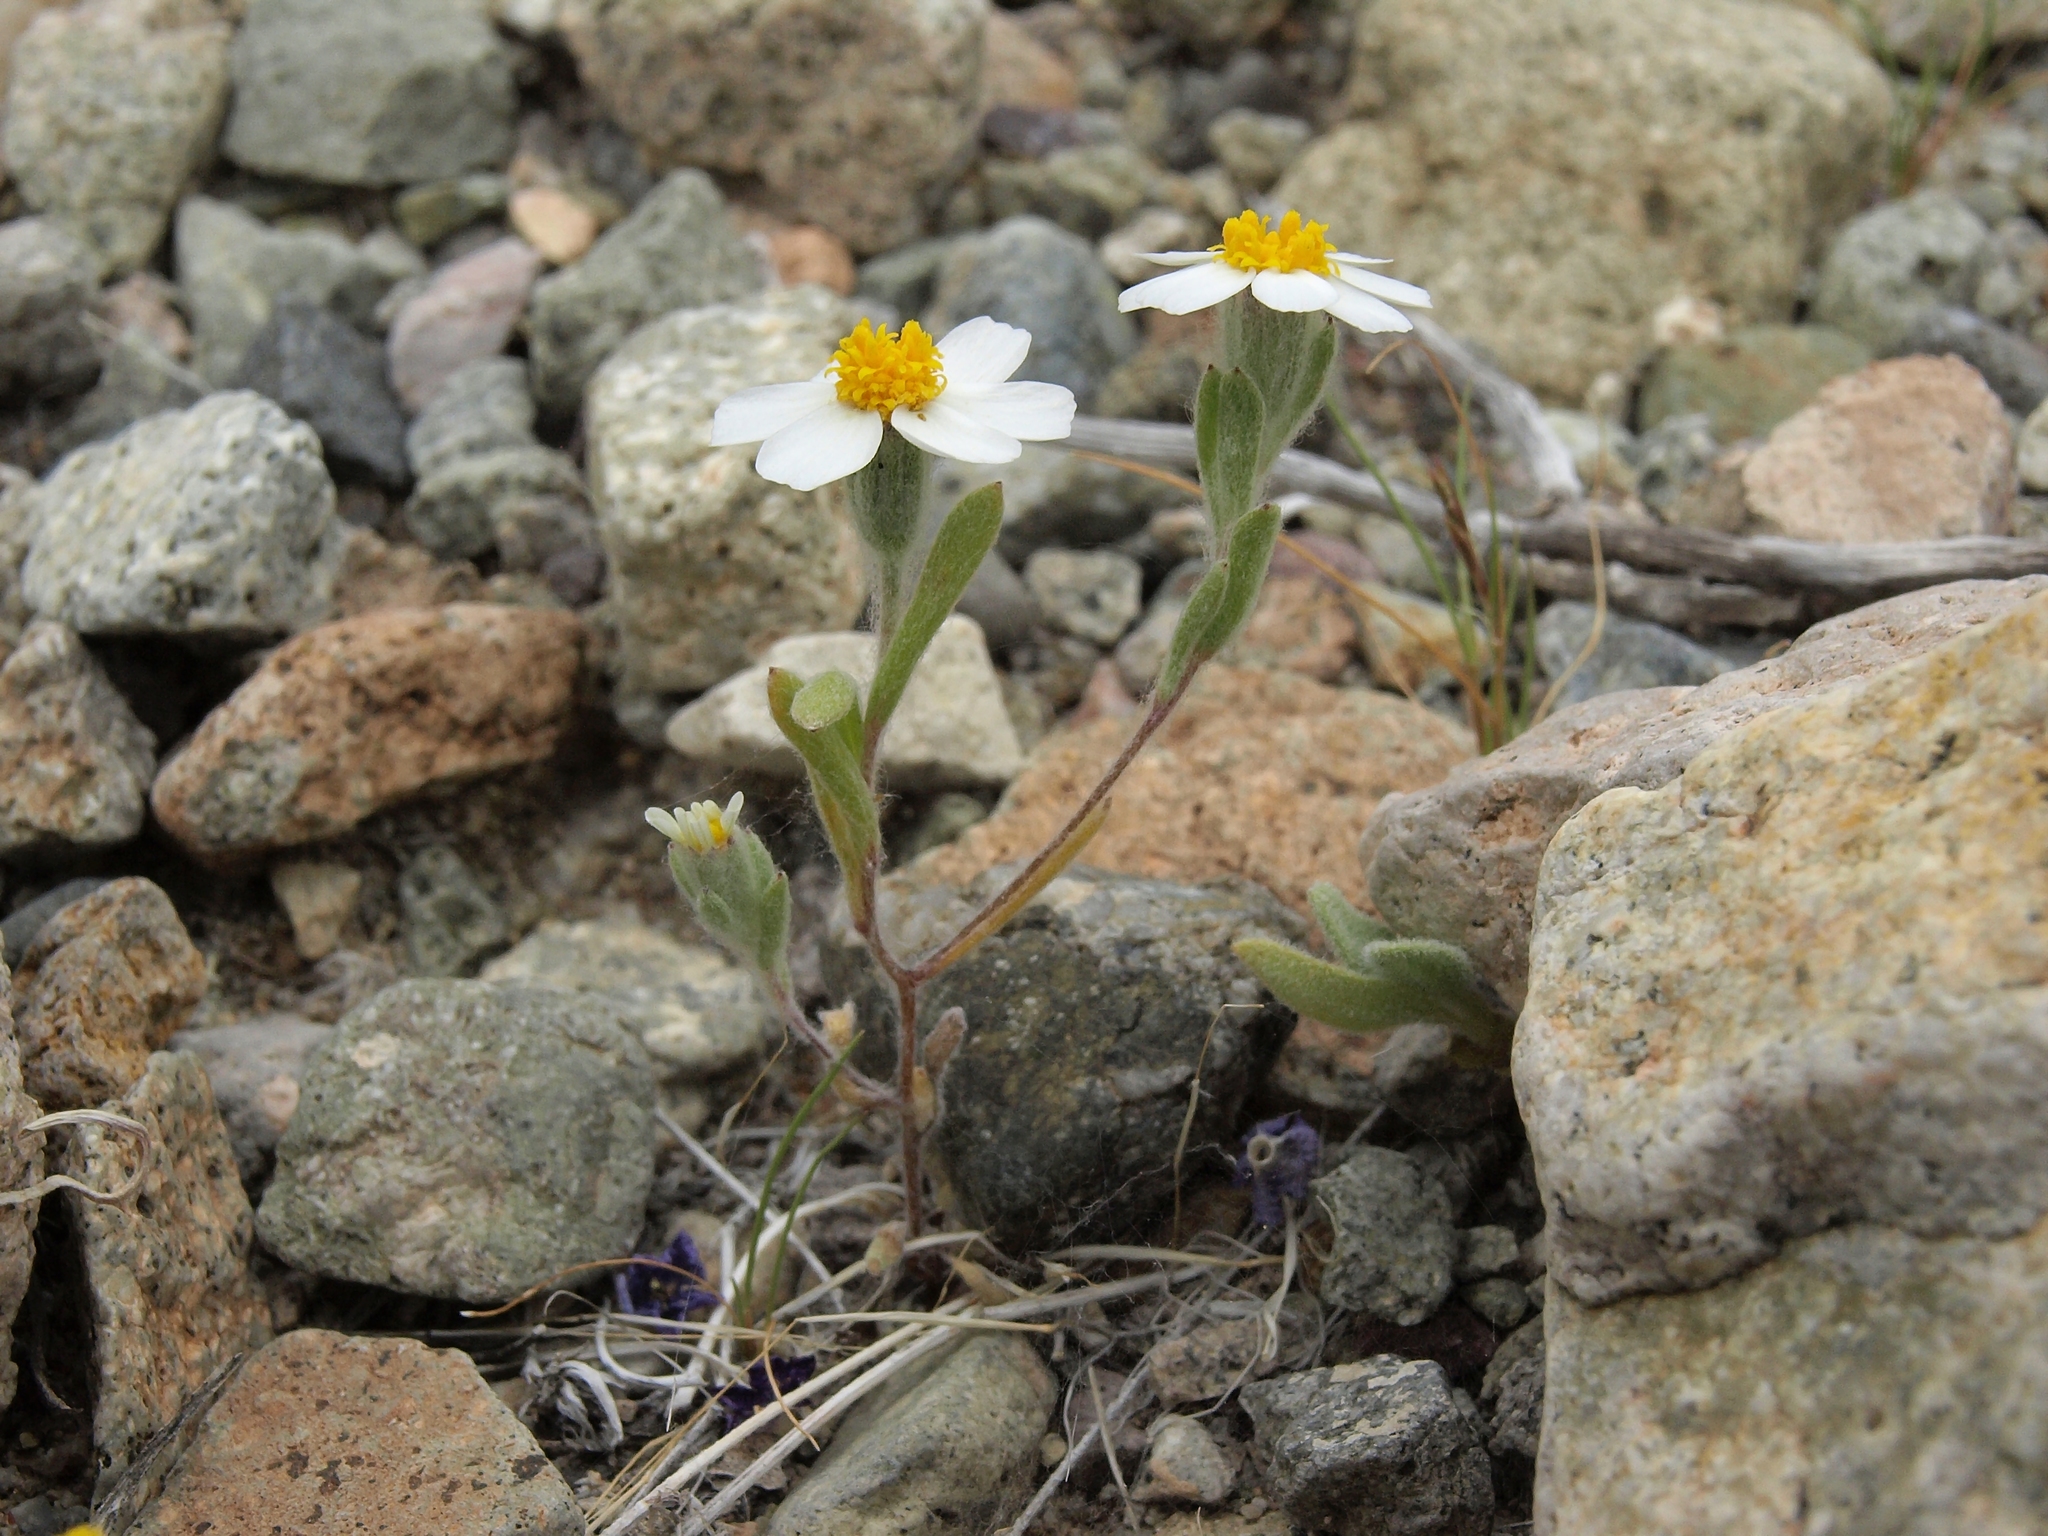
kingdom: Plantae
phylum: Tracheophyta
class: Magnoliopsida
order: Asterales
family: Asteraceae
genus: Eriophyllum
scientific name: Eriophyllum lanosum
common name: White easter-bonnets
